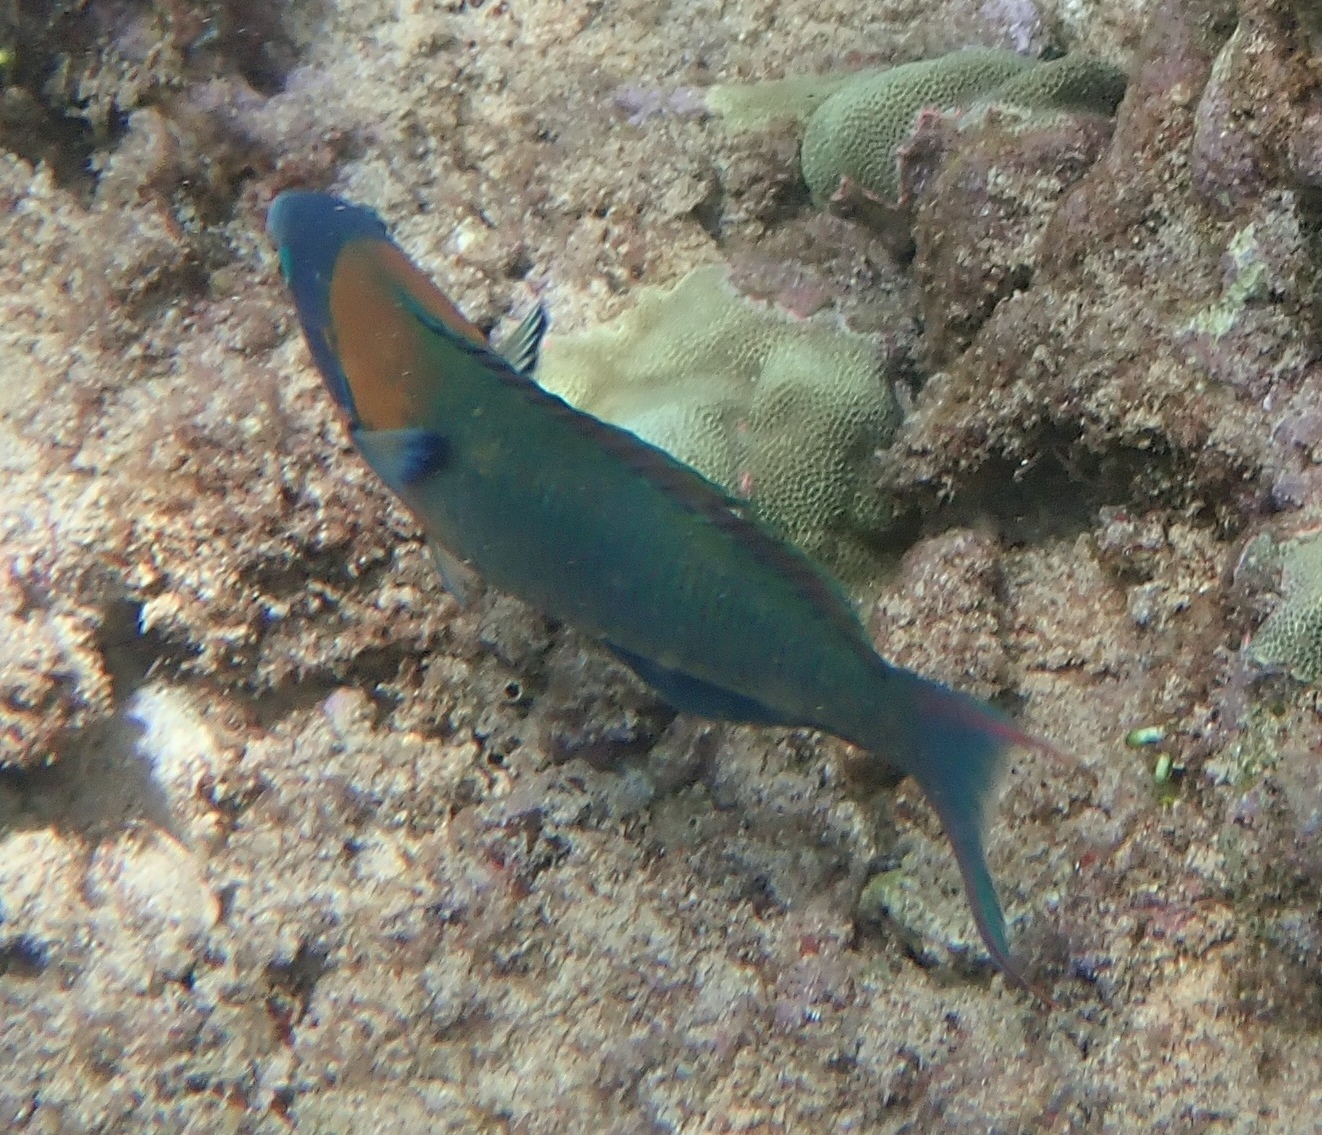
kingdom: Animalia
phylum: Chordata
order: Perciformes
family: Labridae
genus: Thalassoma
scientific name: Thalassoma duperrey
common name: Saddle wrasse
